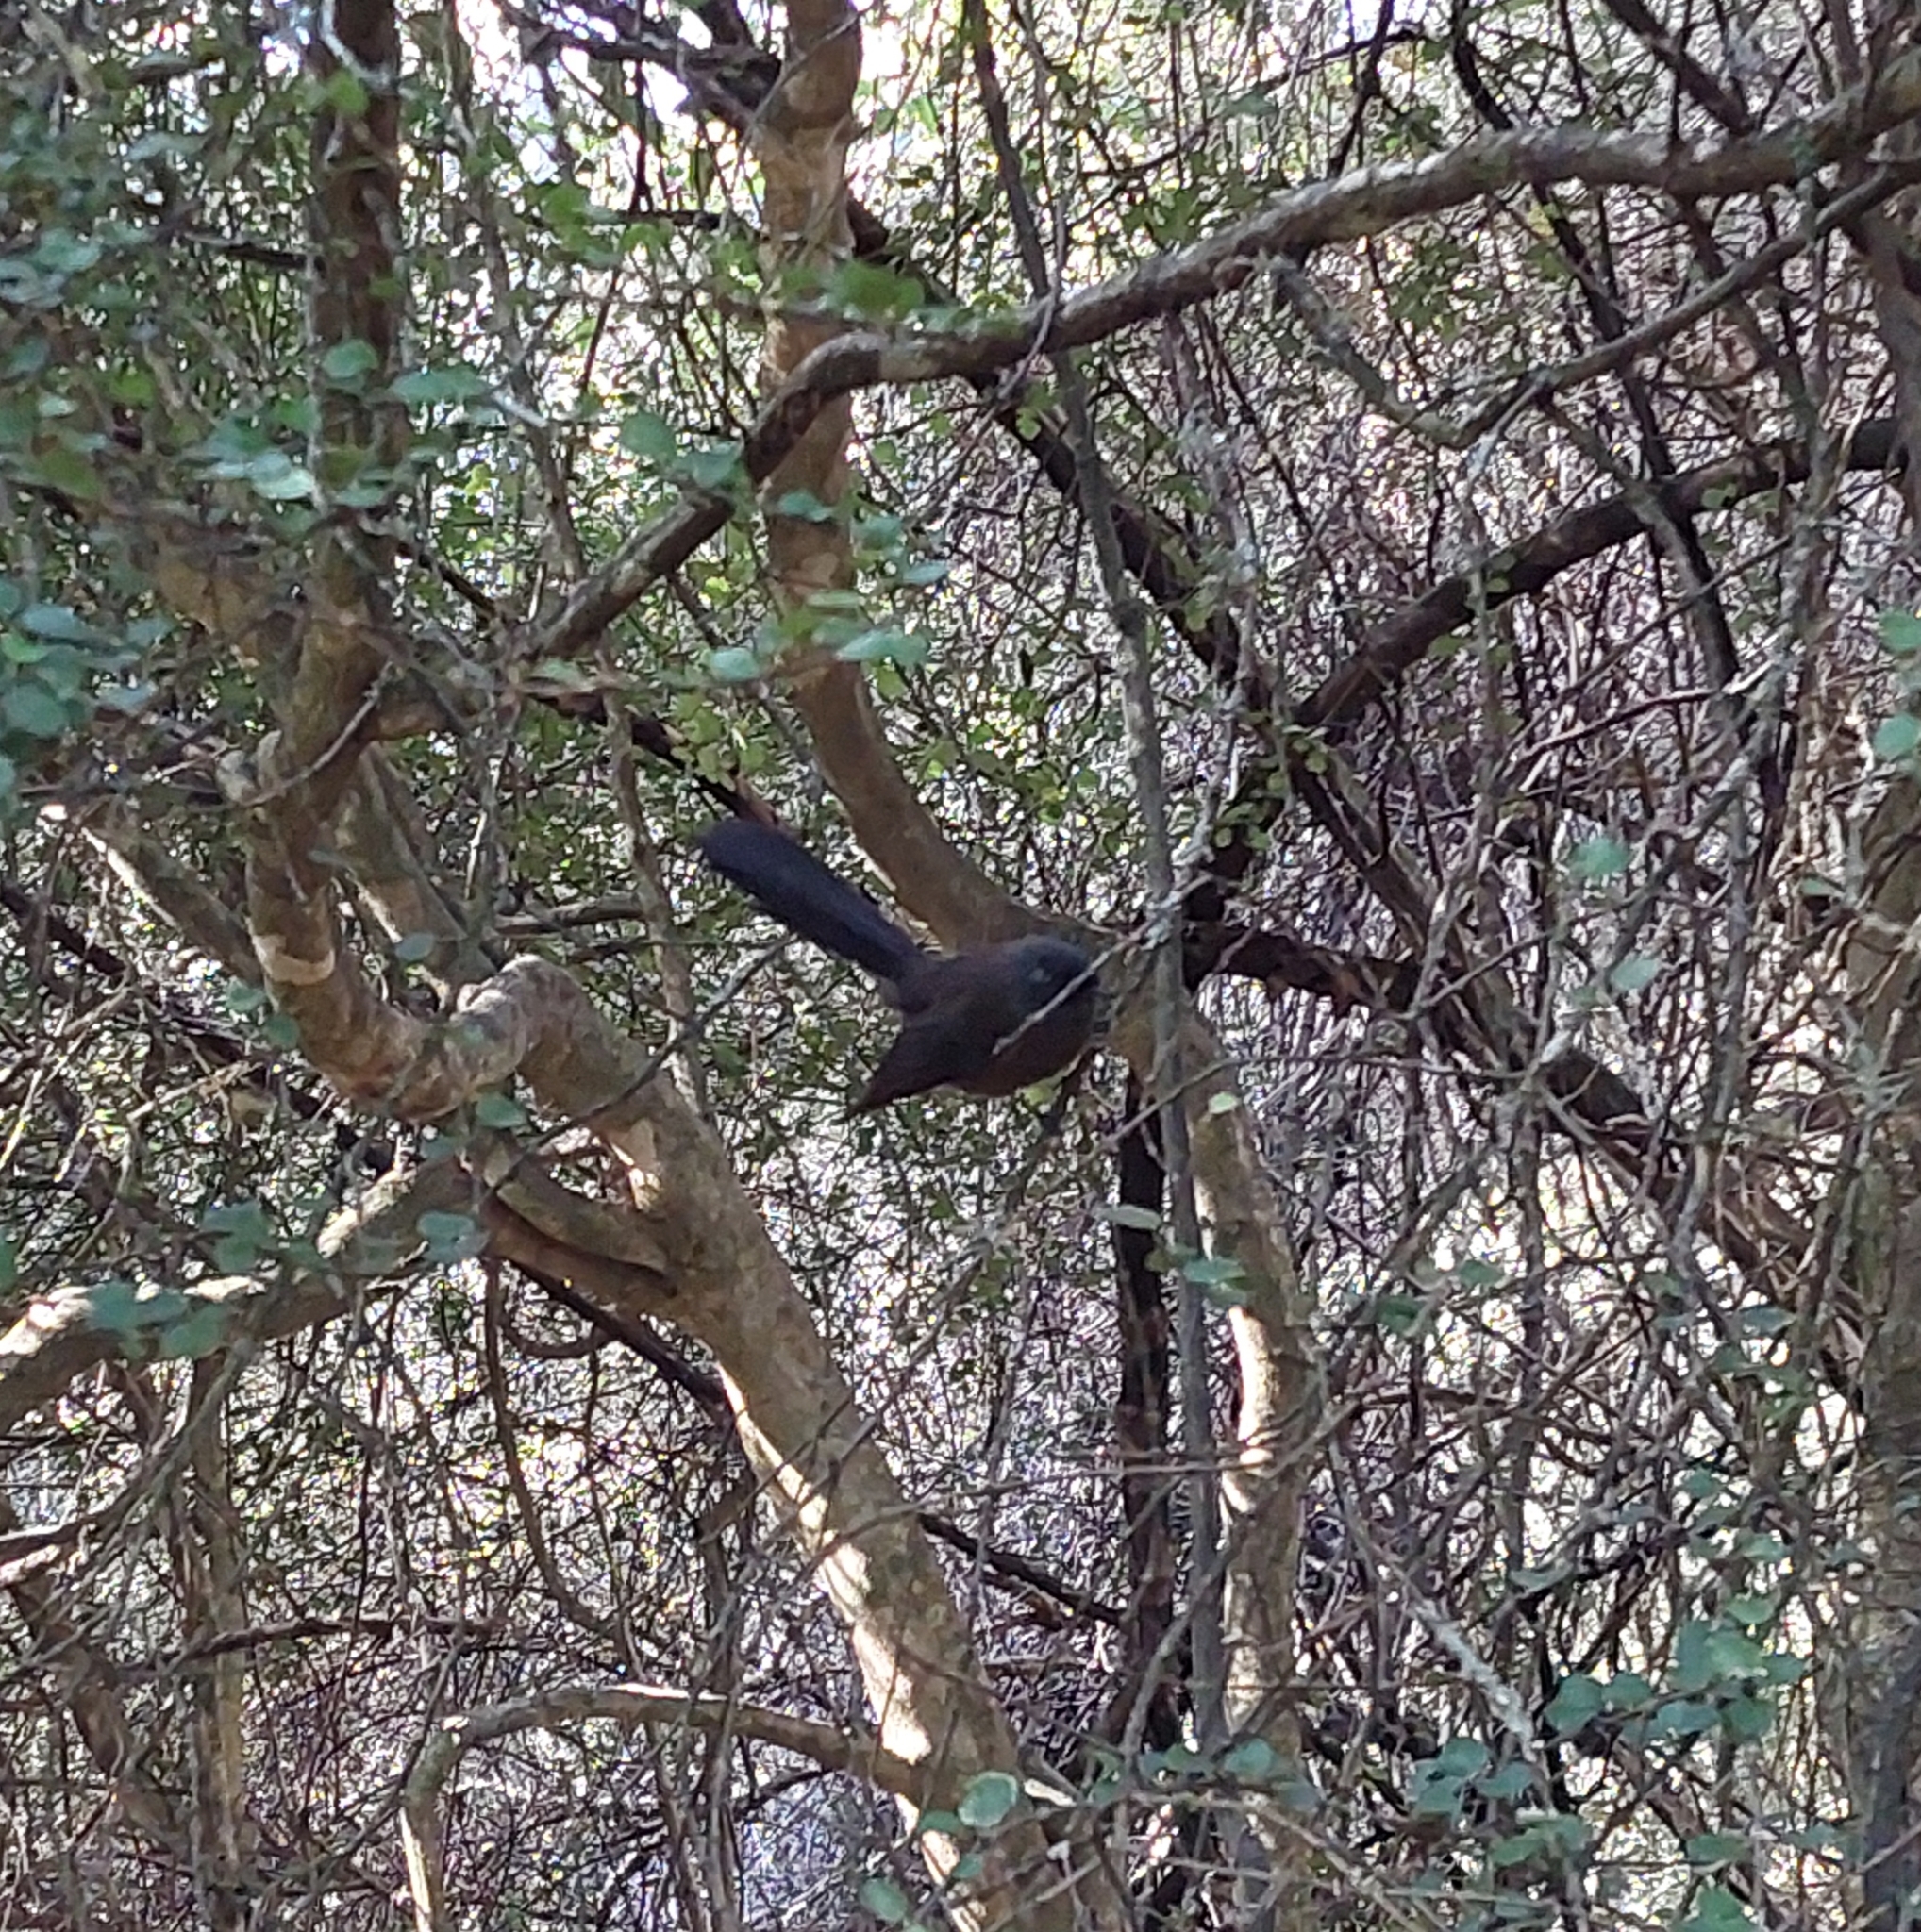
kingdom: Animalia
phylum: Chordata
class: Aves
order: Passeriformes
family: Rhipiduridae
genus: Rhipidura
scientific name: Rhipidura fuliginosa
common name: New zealand fantail
